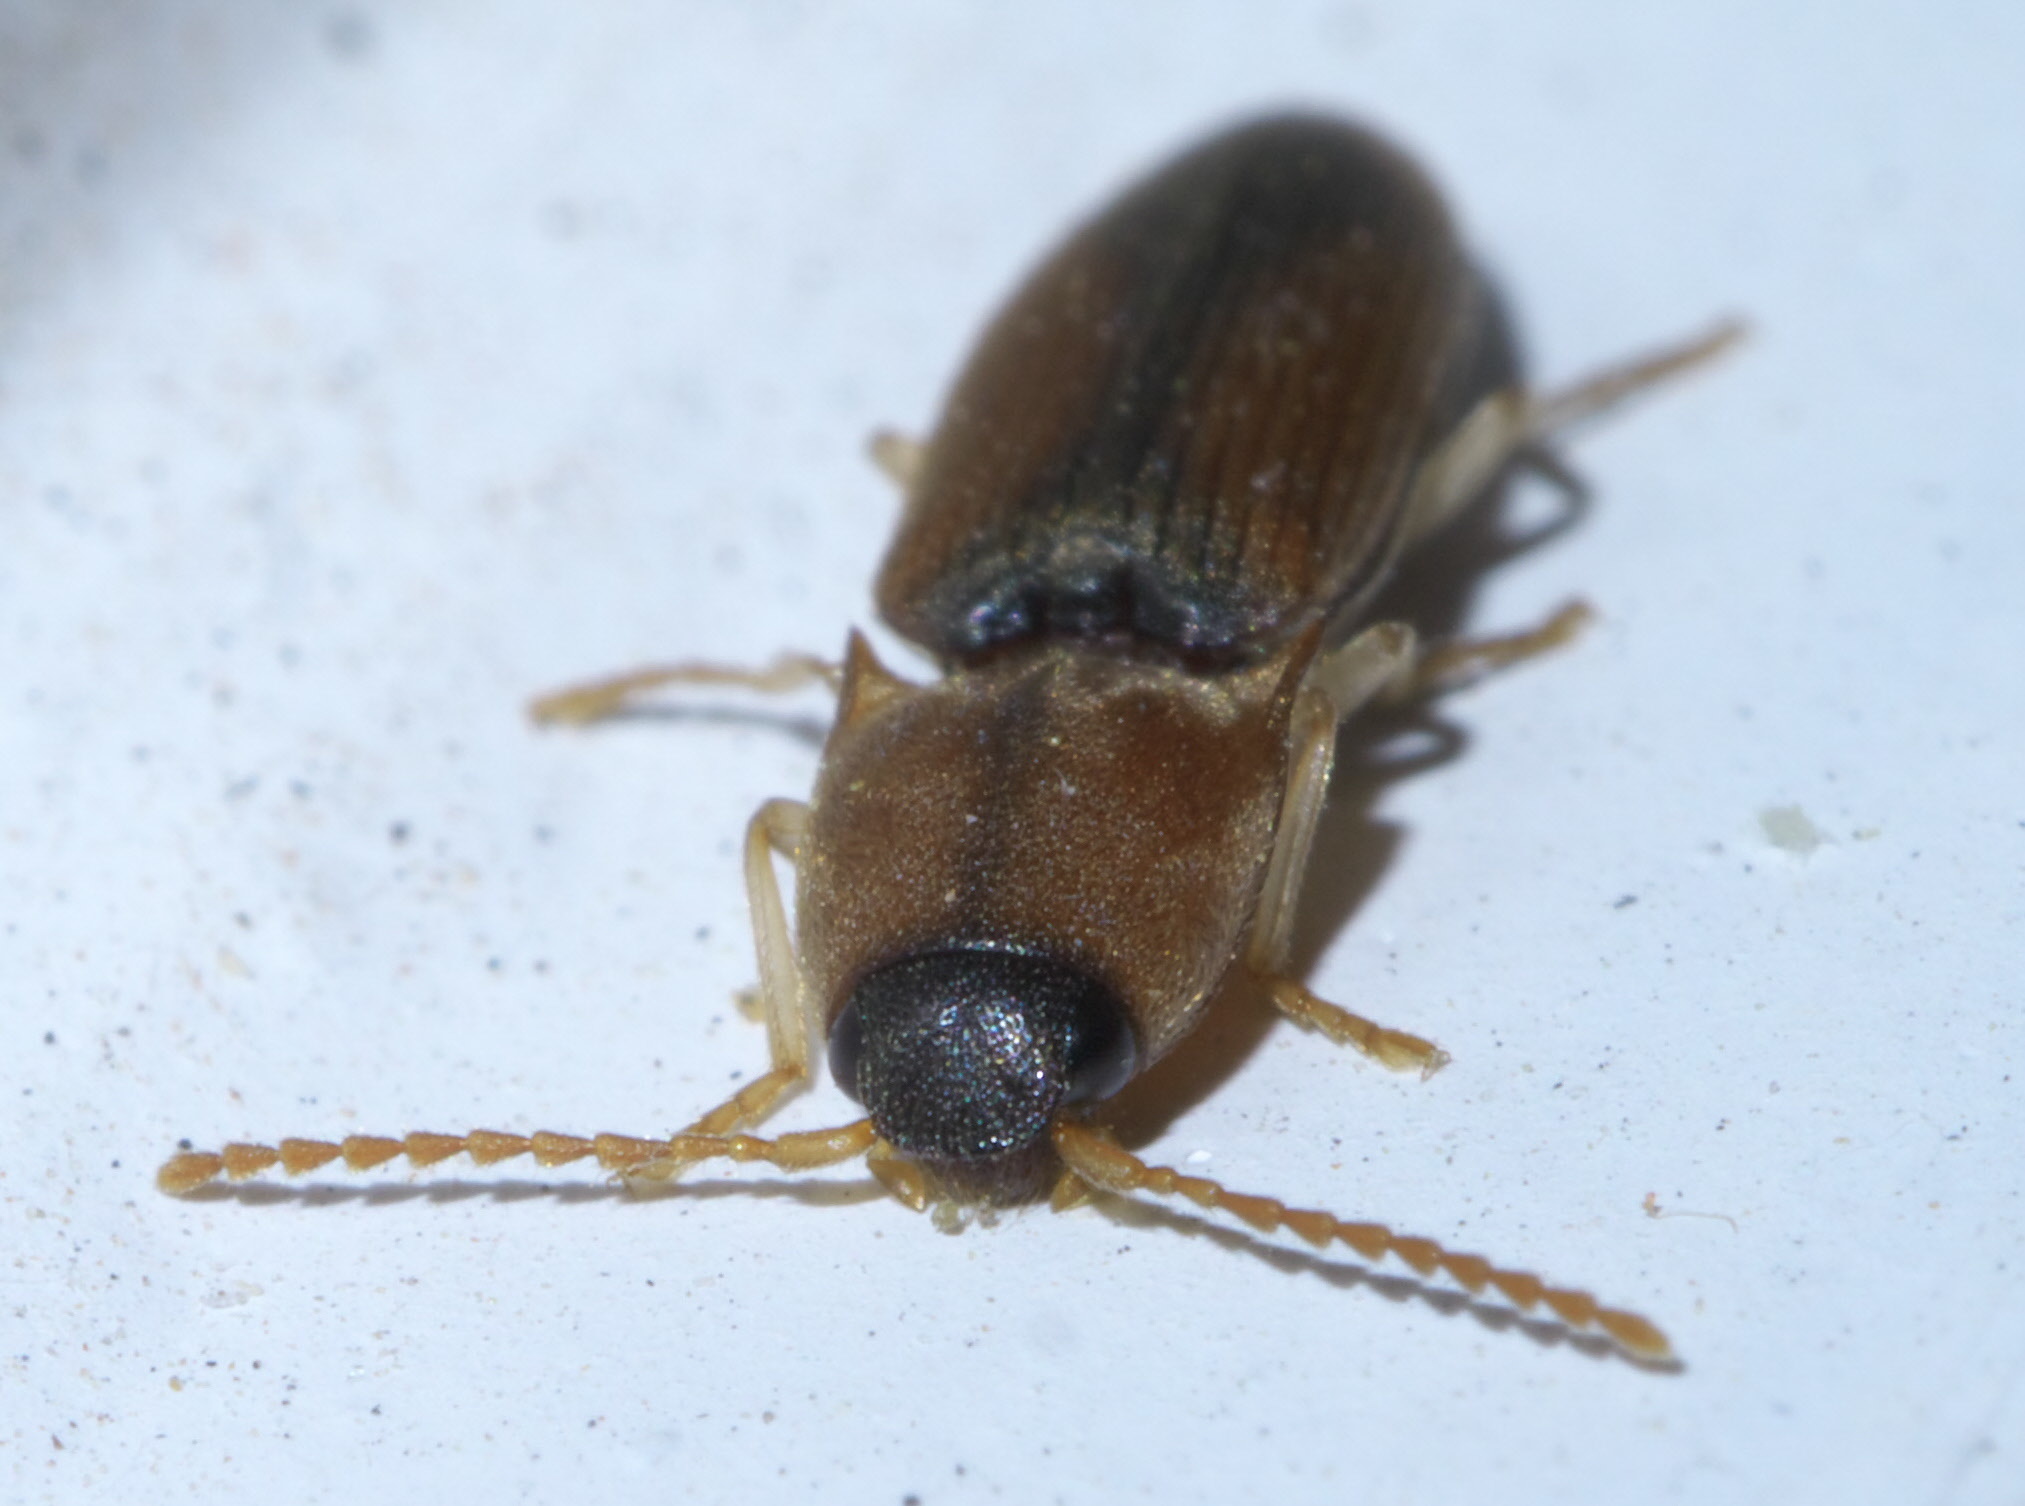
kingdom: Animalia
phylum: Arthropoda
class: Insecta
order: Coleoptera
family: Elateridae
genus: Monocrepidius
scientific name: Monocrepidius
